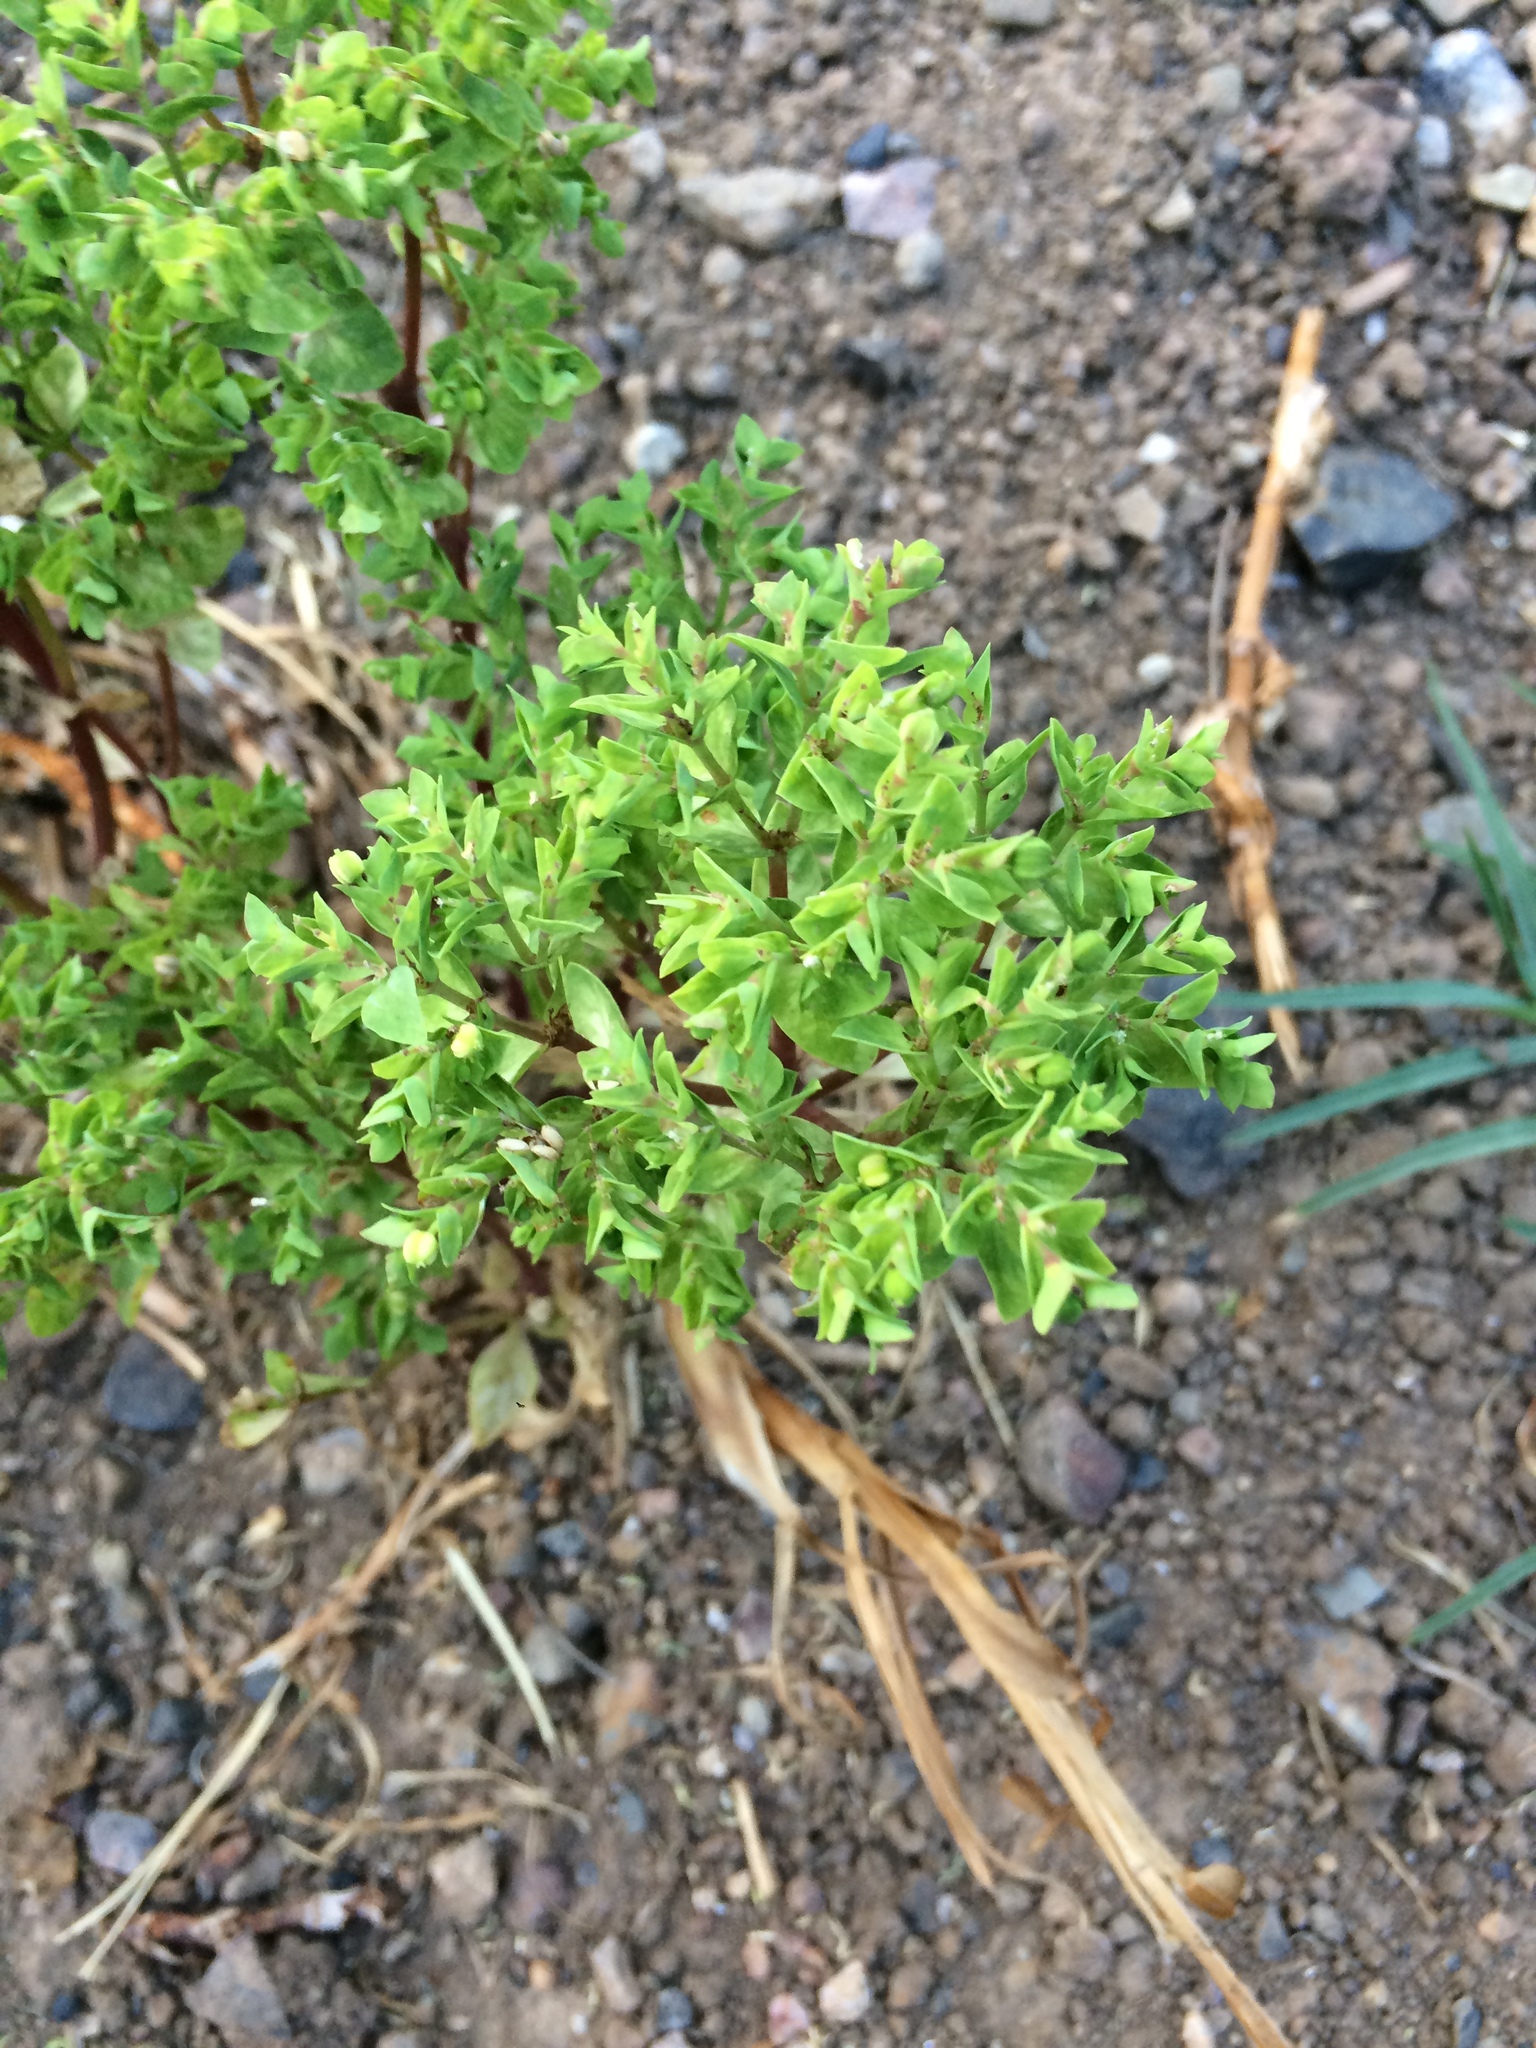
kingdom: Plantae
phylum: Tracheophyta
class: Magnoliopsida
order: Malpighiales
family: Euphorbiaceae
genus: Euphorbia
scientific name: Euphorbia peplus
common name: Petty spurge
